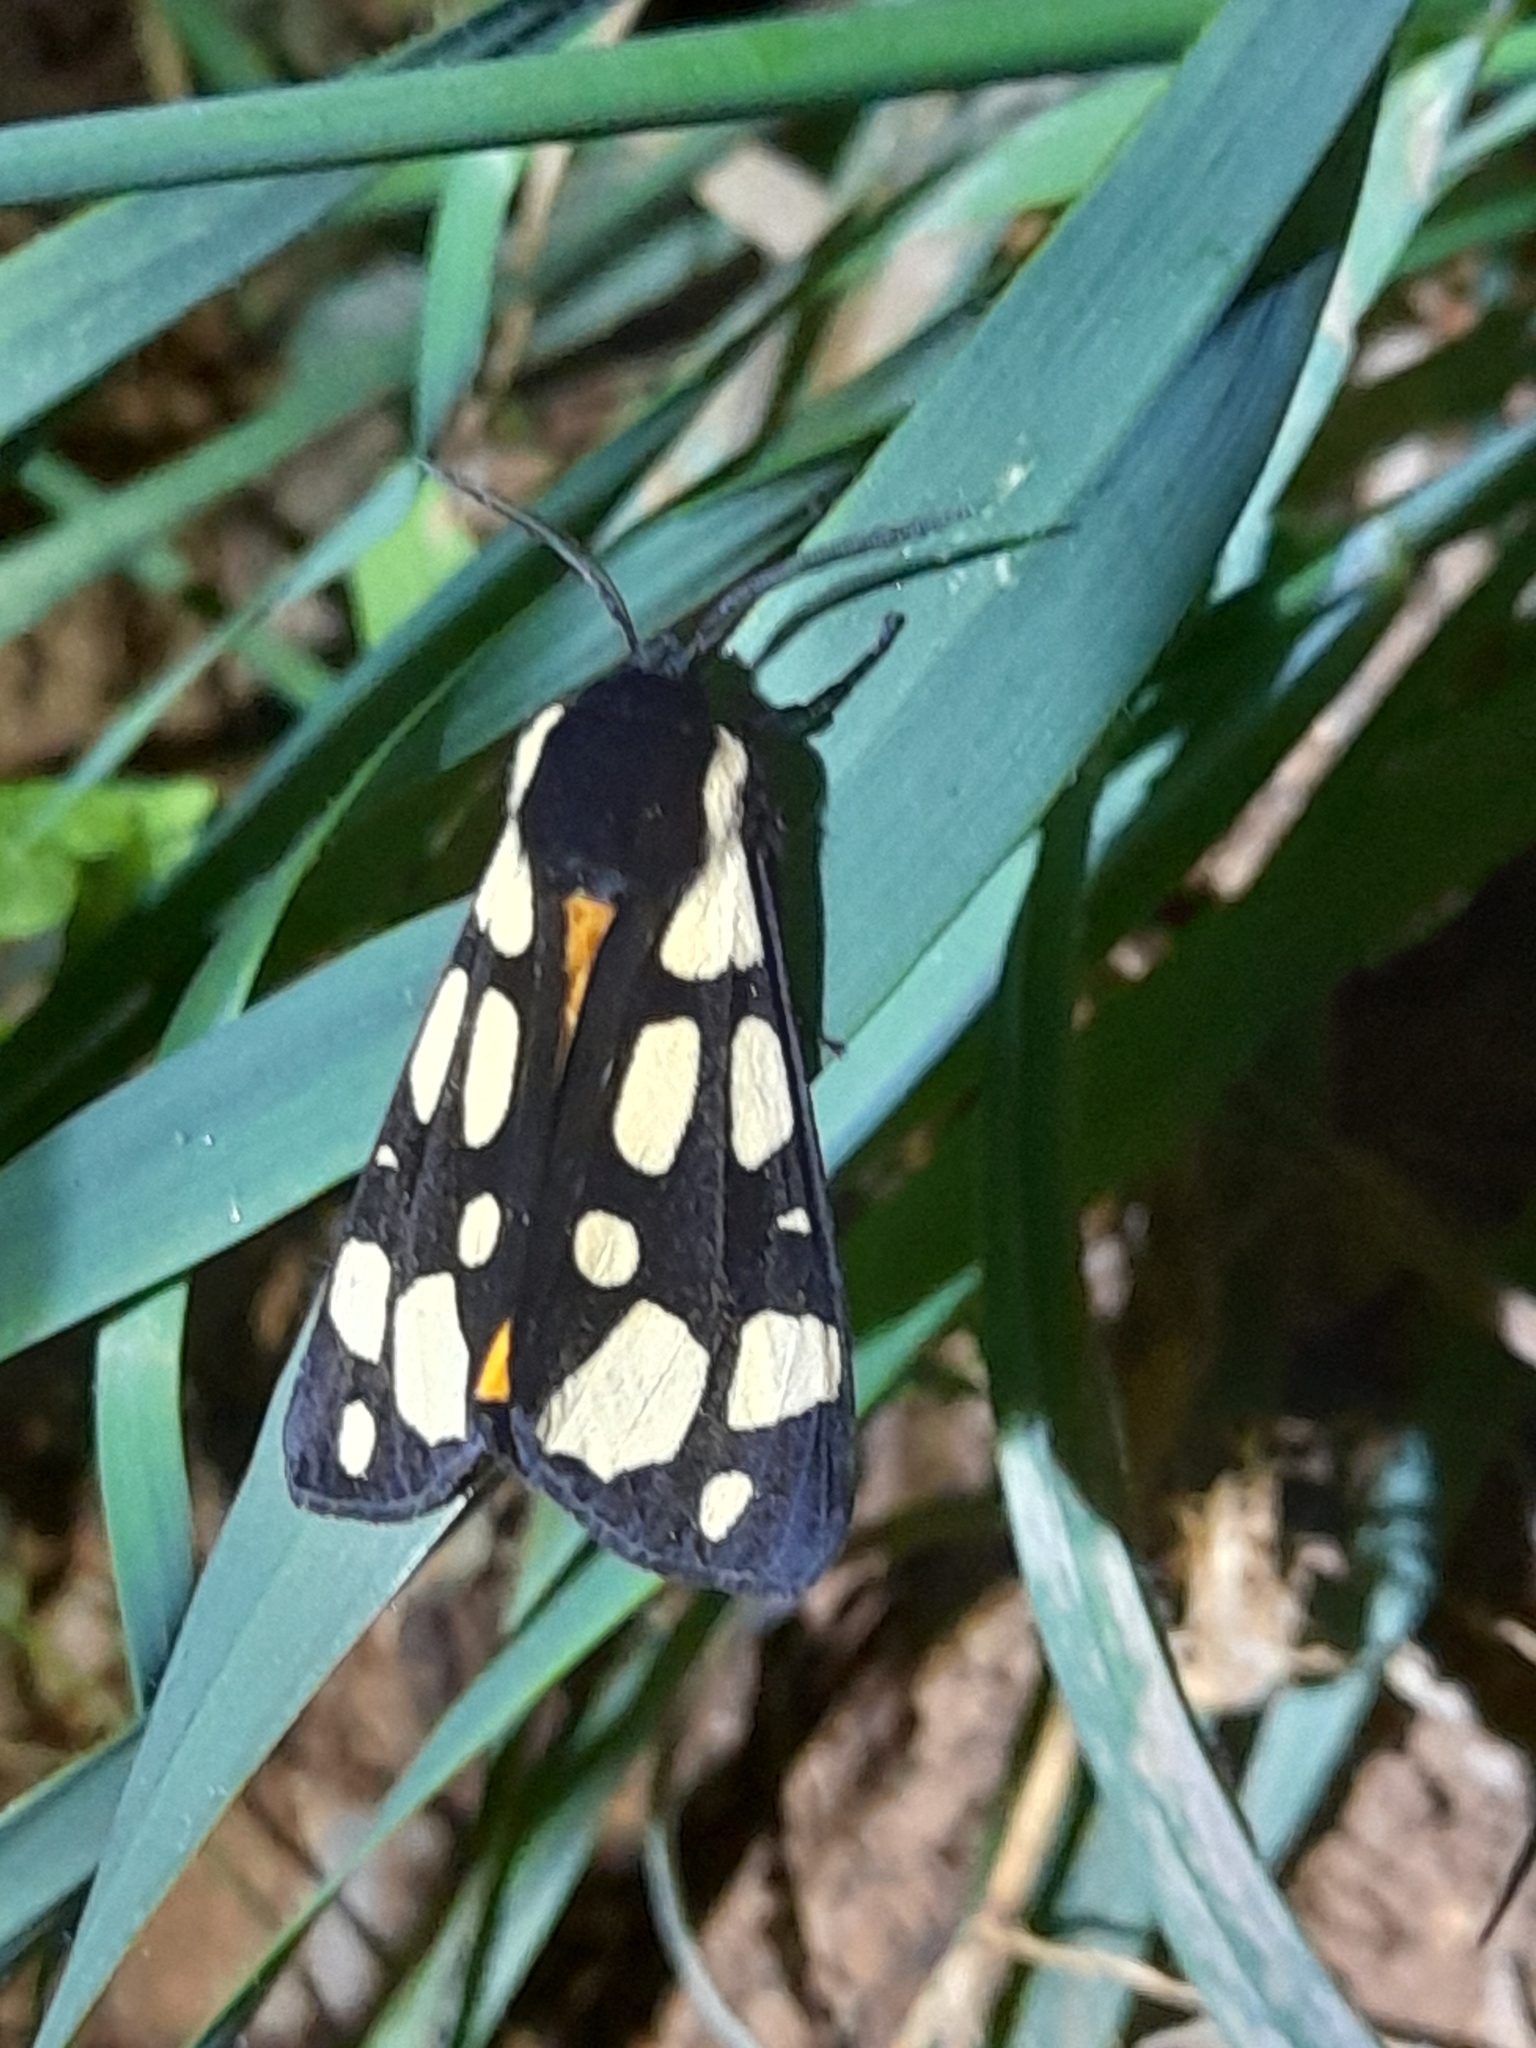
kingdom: Animalia
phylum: Arthropoda
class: Insecta
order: Lepidoptera
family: Erebidae
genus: Epicallia
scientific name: Epicallia villica
